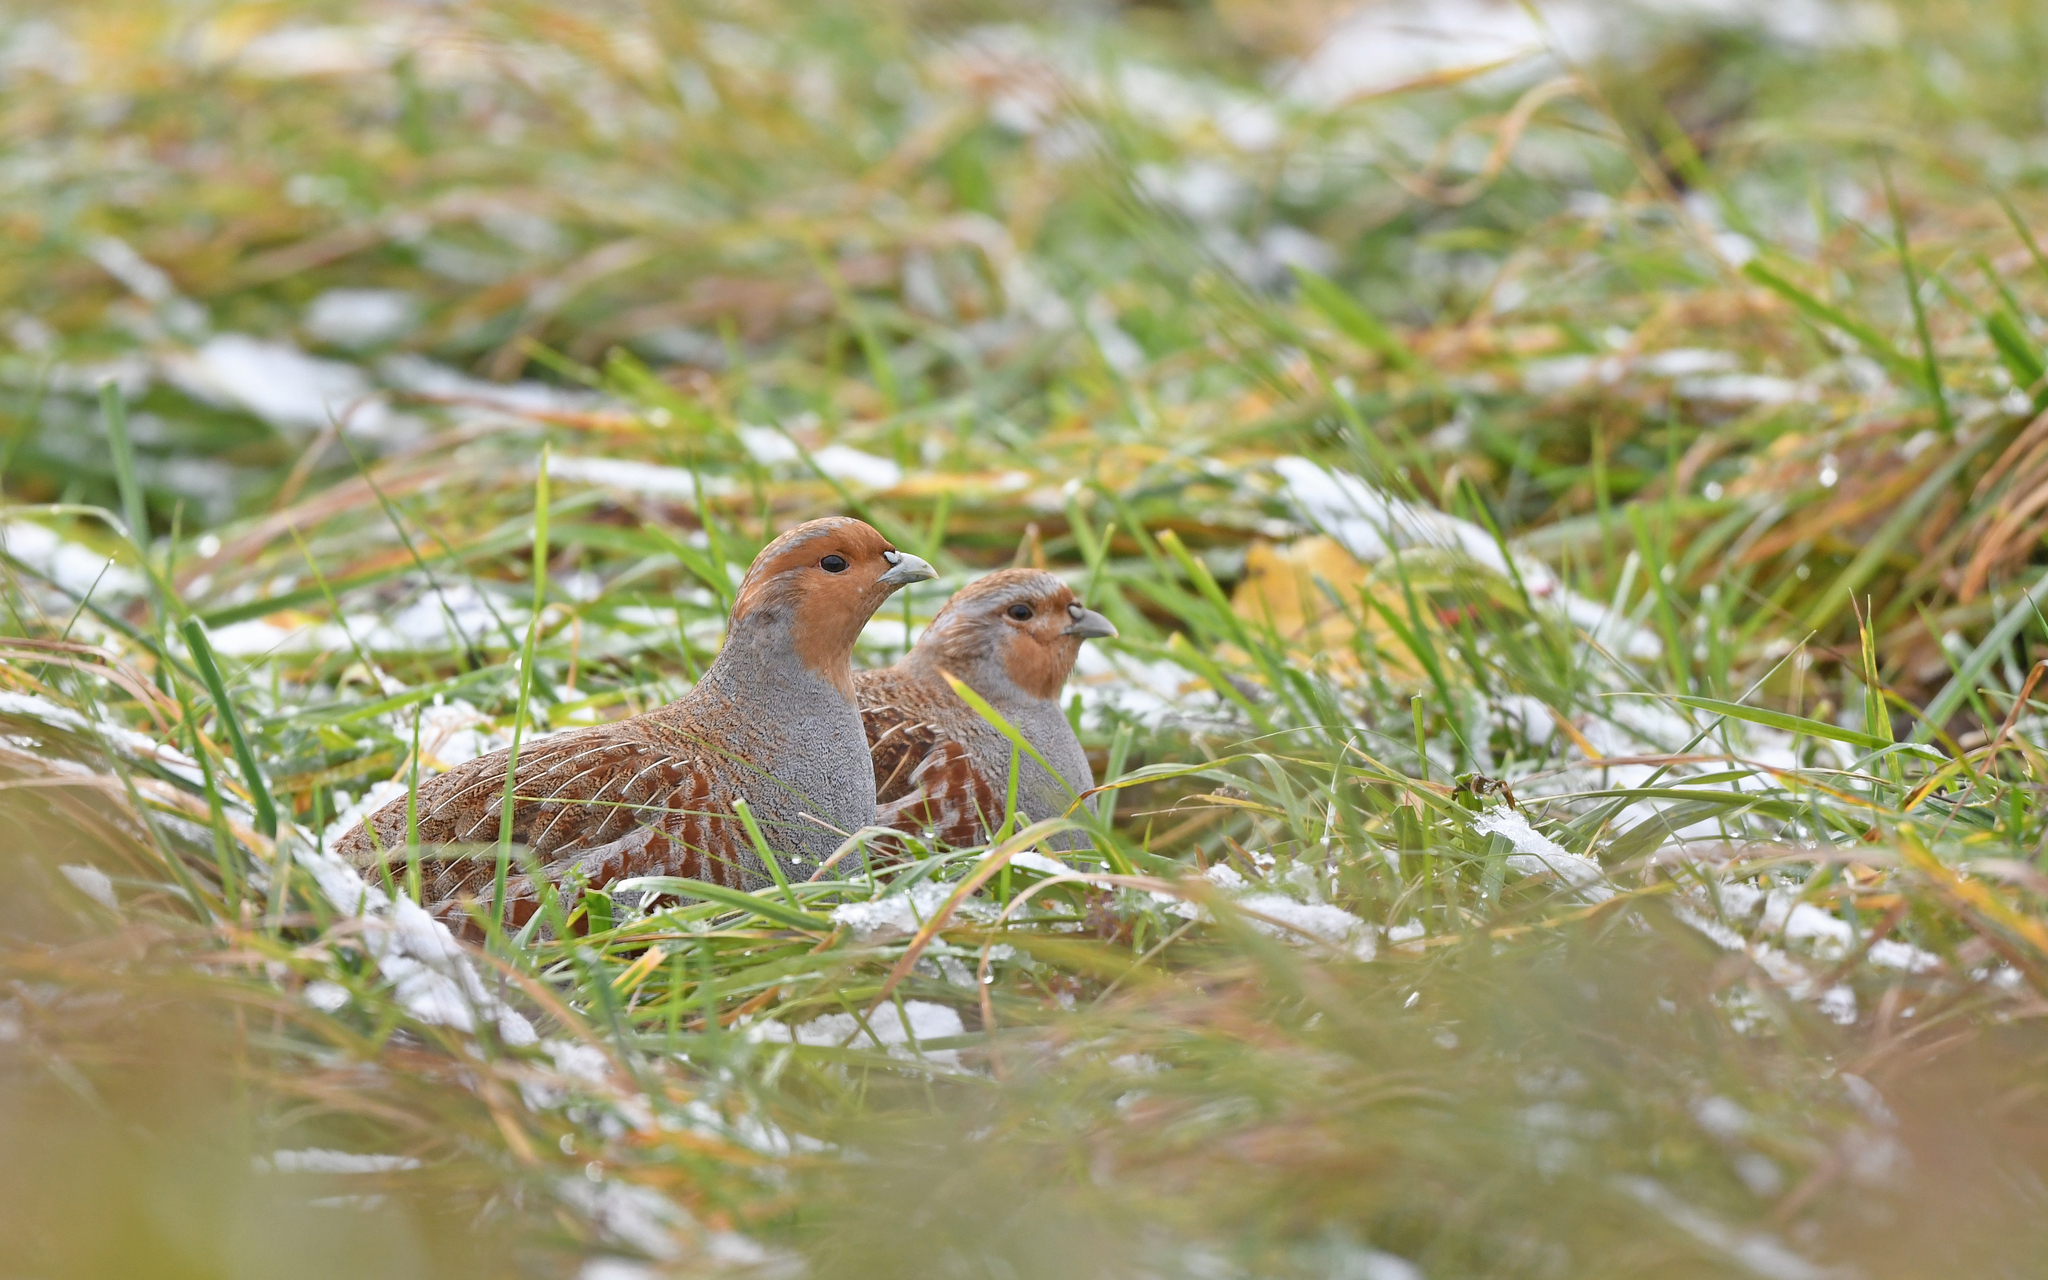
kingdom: Animalia
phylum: Chordata
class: Aves
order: Galliformes
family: Phasianidae
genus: Perdix
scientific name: Perdix perdix
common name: Grey partridge
